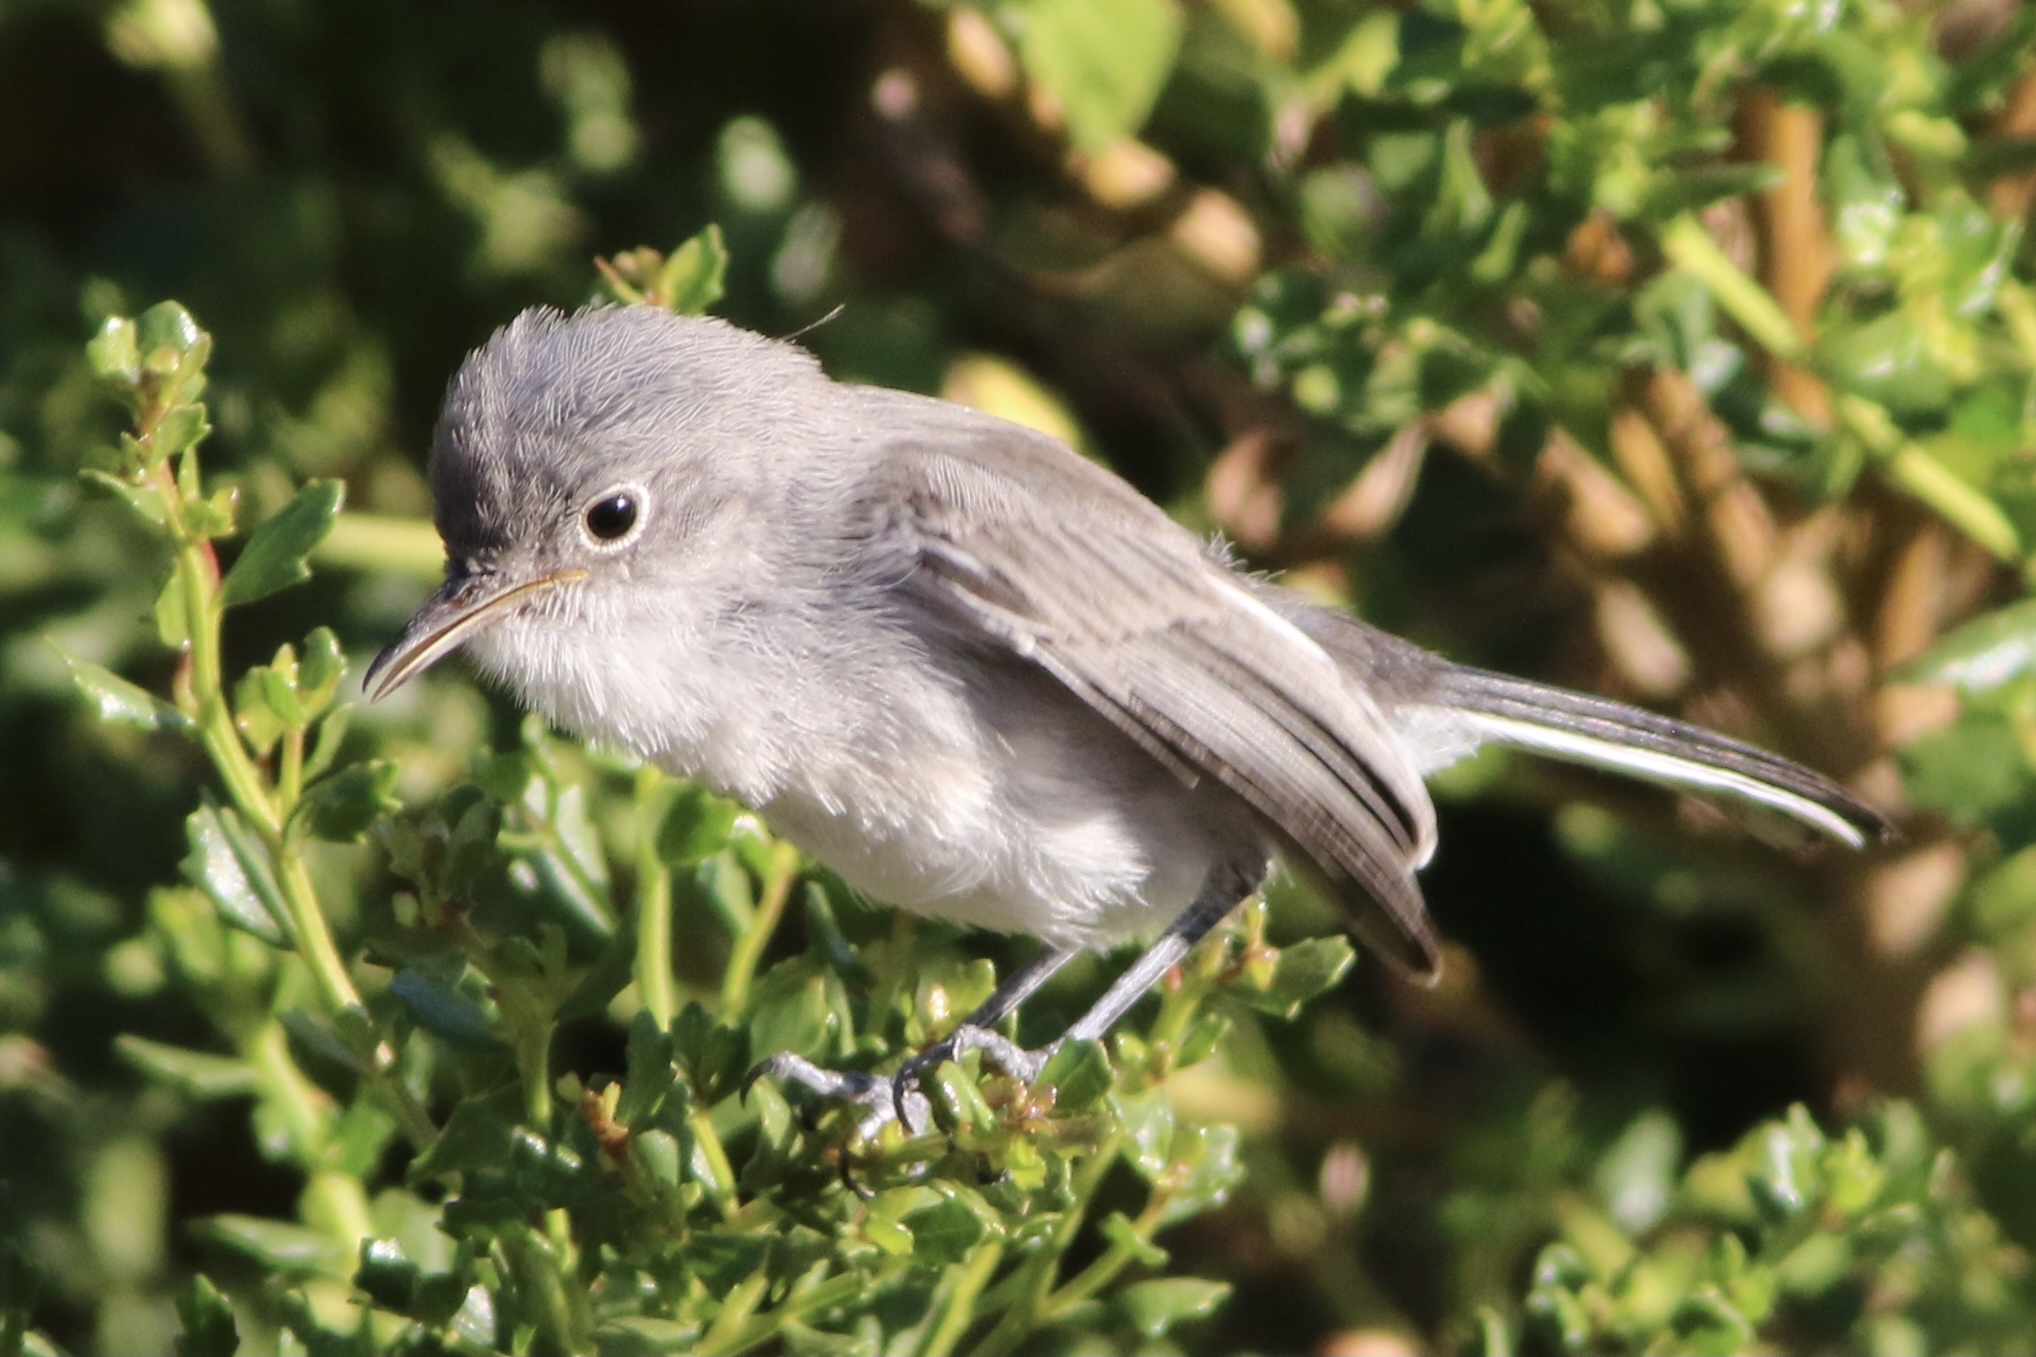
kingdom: Animalia
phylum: Chordata
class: Aves
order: Passeriformes
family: Polioptilidae
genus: Polioptila
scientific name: Polioptila caerulea
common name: Blue-gray gnatcatcher
